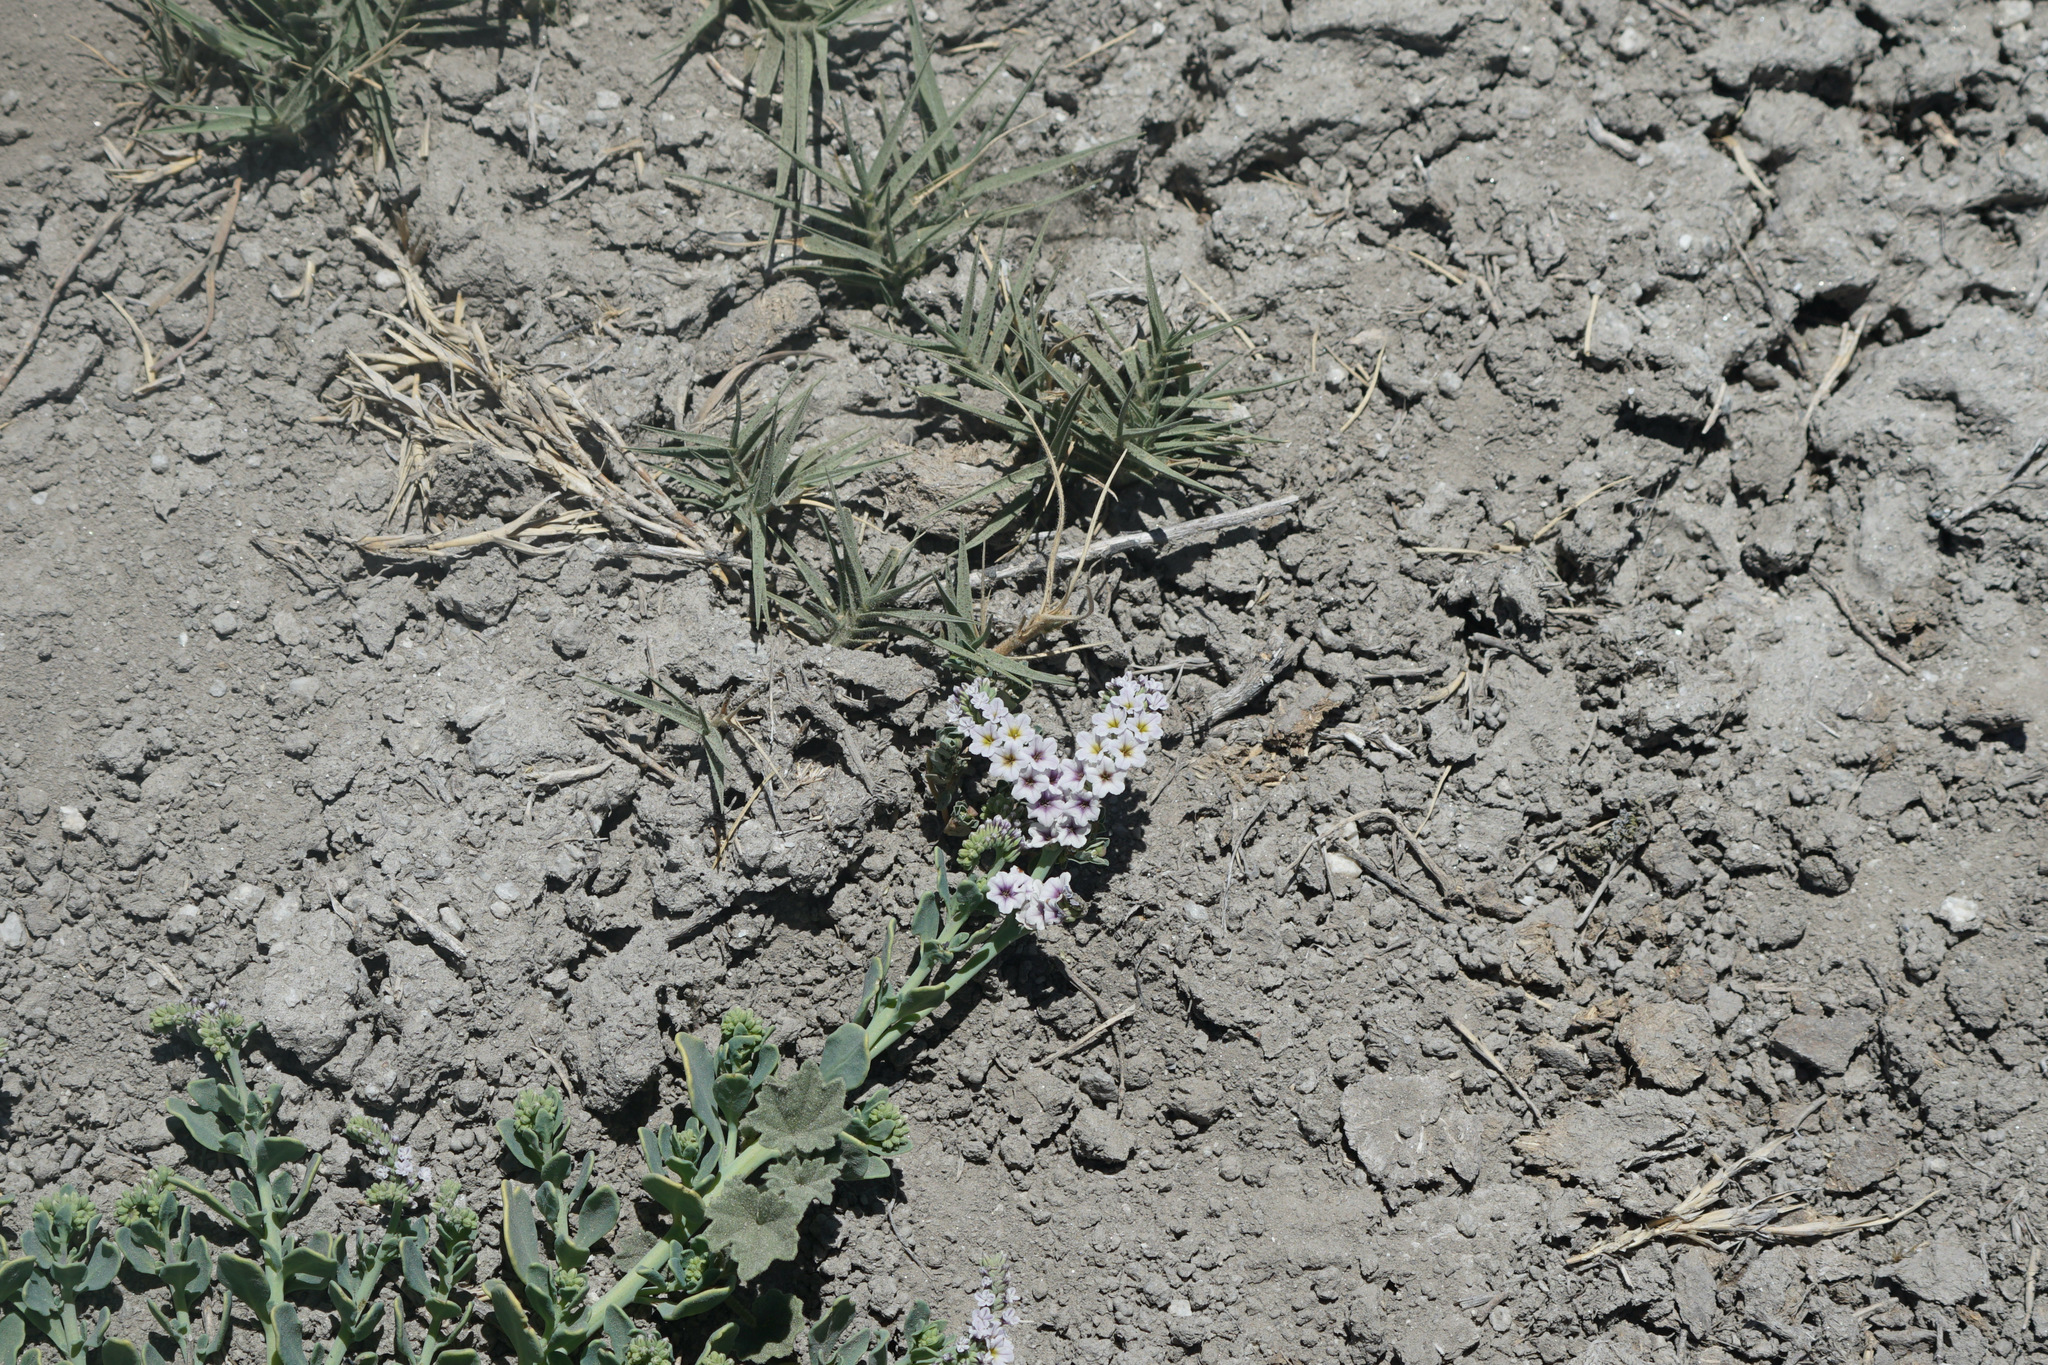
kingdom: Plantae
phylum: Tracheophyta
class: Magnoliopsida
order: Boraginales
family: Heliotropiaceae
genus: Heliotropium
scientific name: Heliotropium curassavicum
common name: Seaside heliotrope
